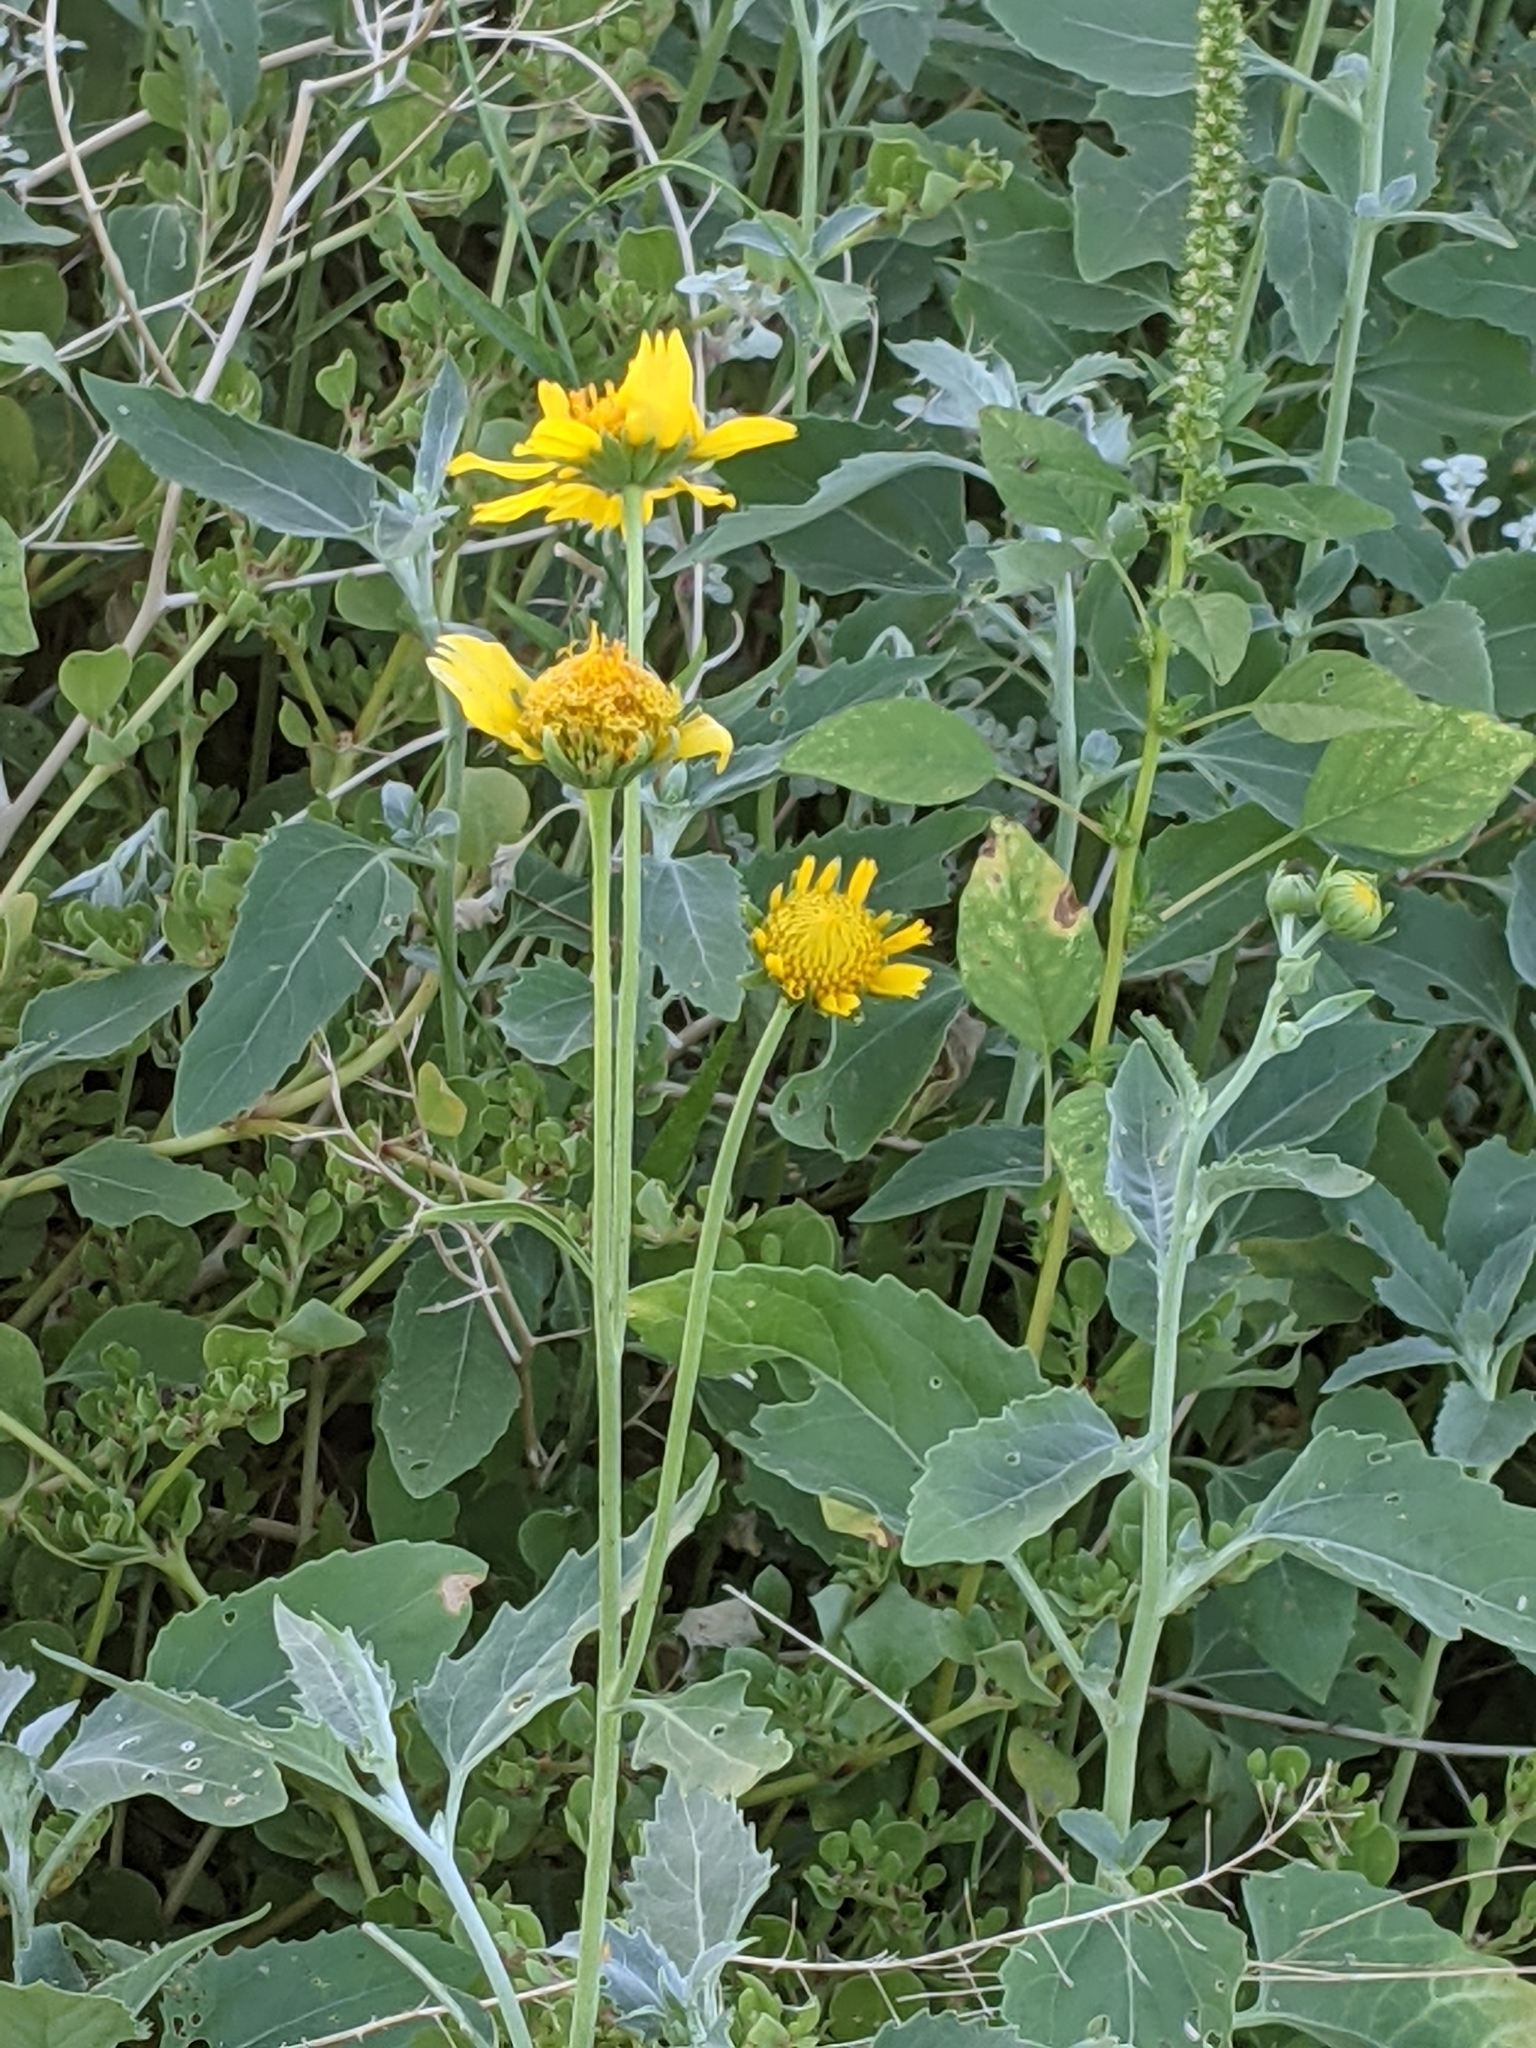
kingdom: Plantae
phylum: Tracheophyta
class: Magnoliopsida
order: Asterales
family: Asteraceae
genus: Verbesina
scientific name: Verbesina encelioides
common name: Golden crownbeard
